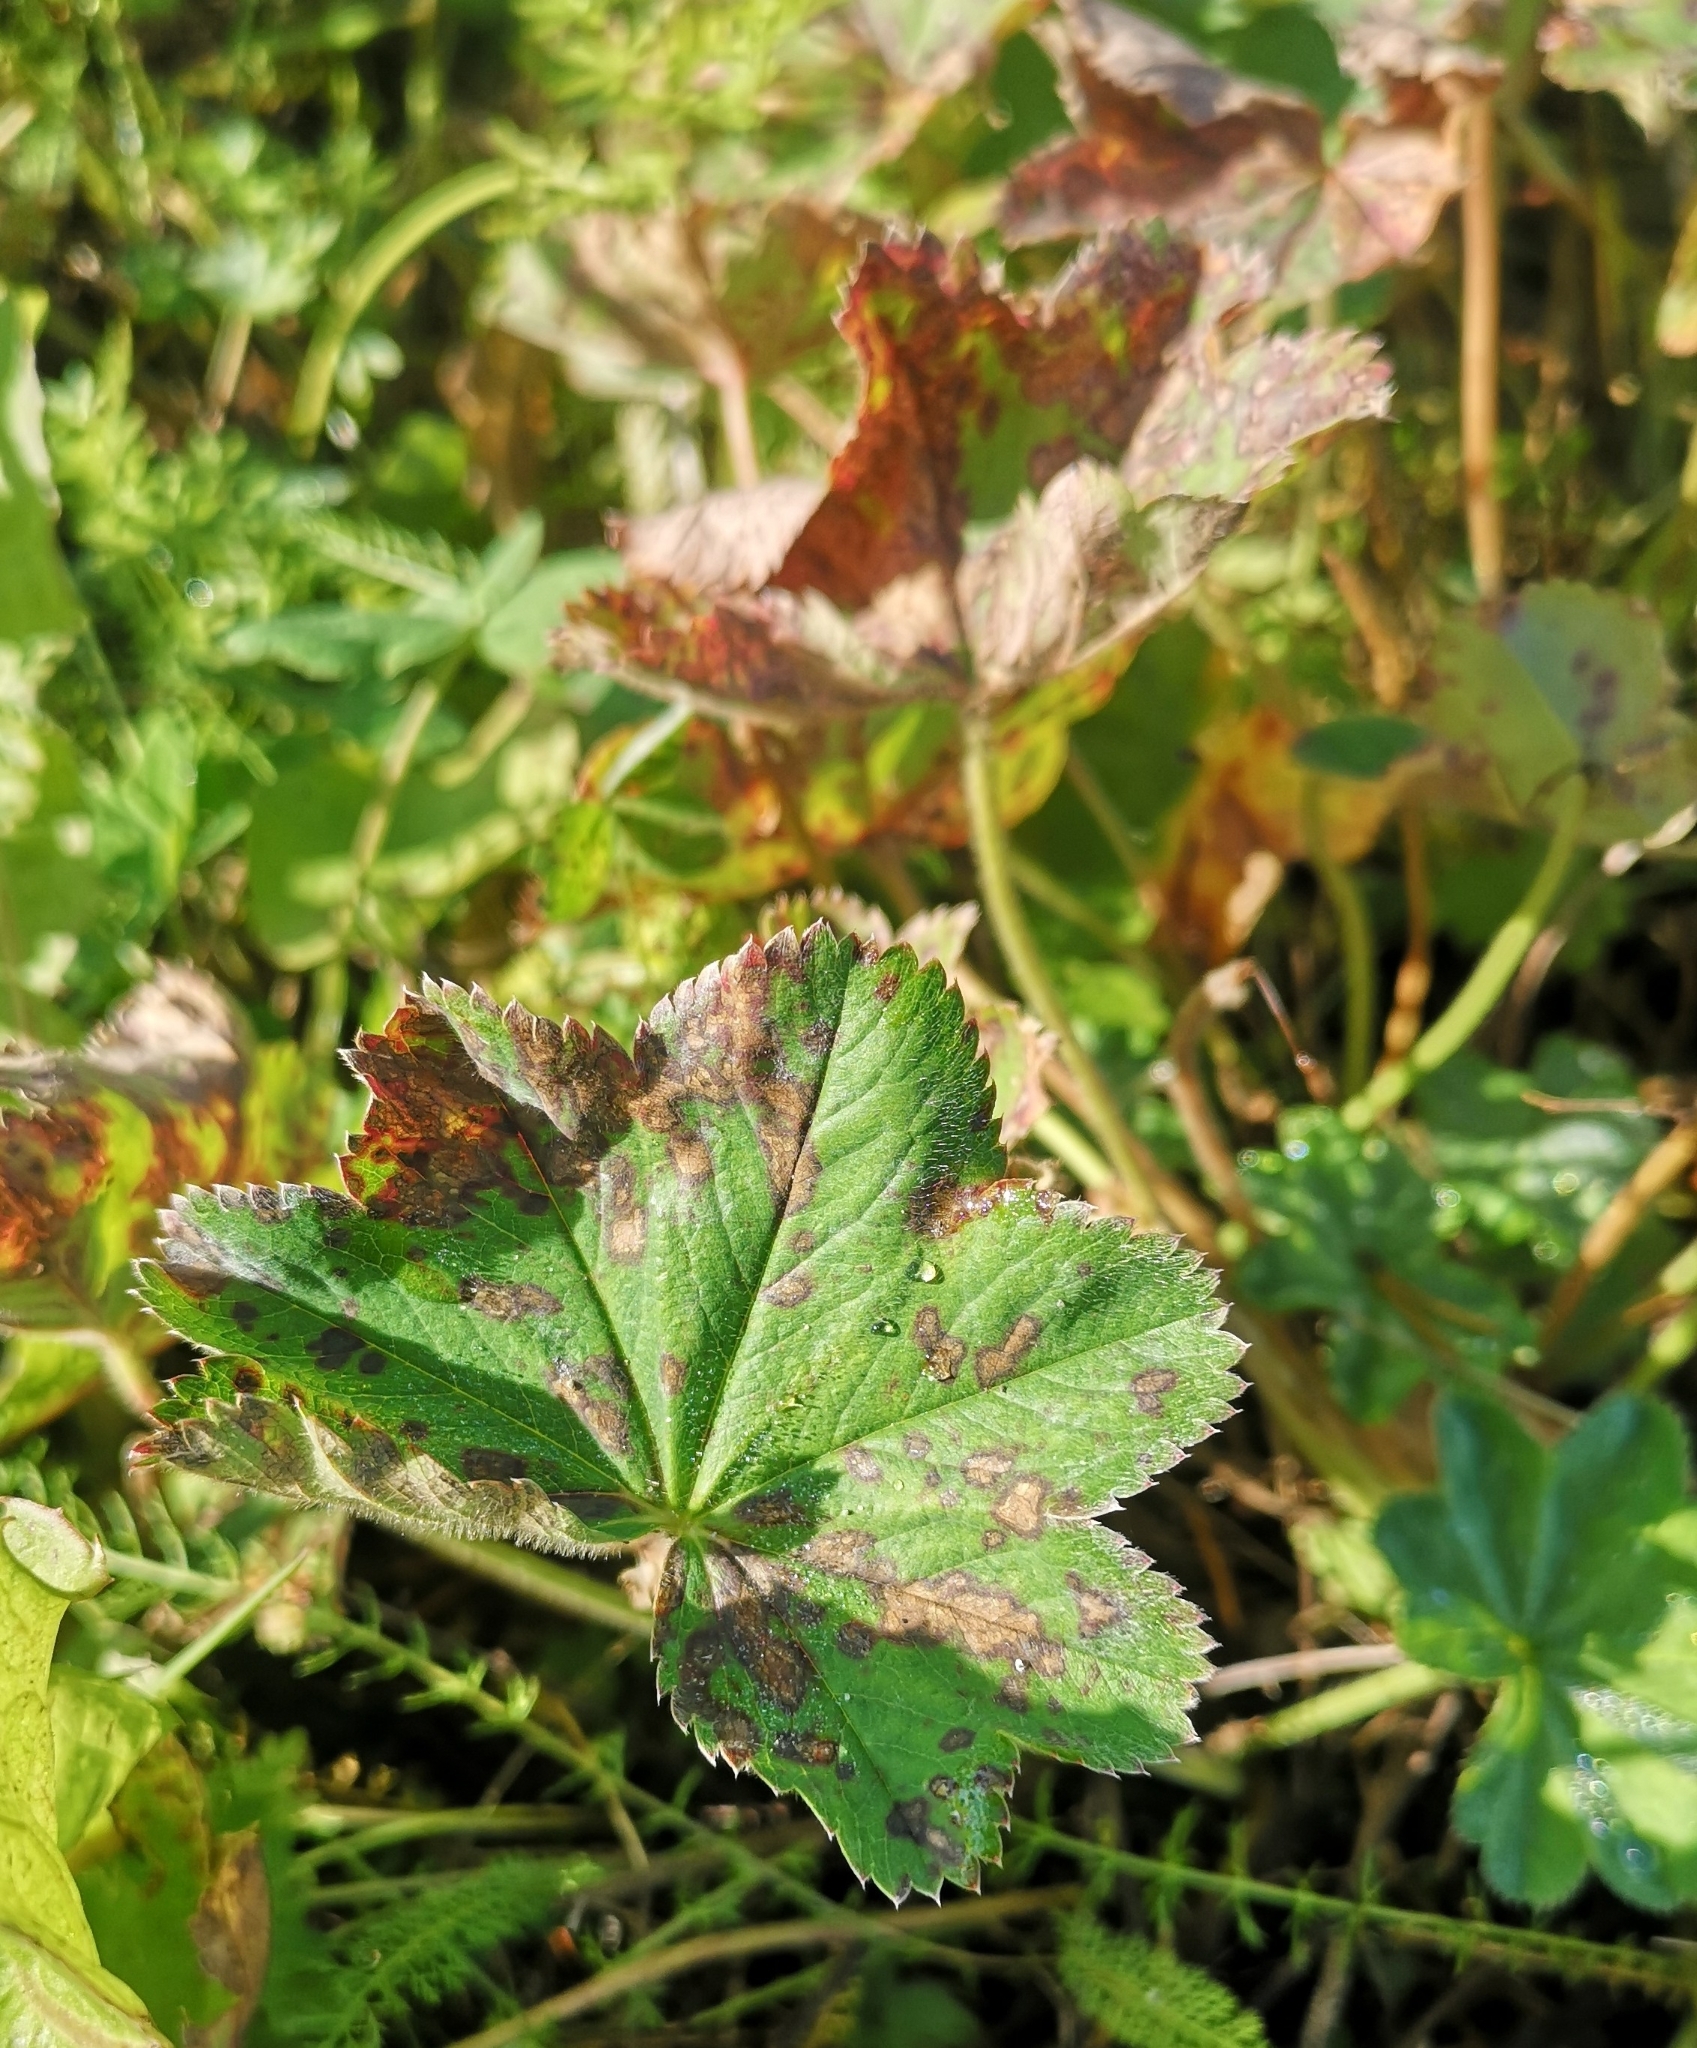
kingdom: Plantae
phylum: Tracheophyta
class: Magnoliopsida
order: Rosales
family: Rosaceae
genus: Alchemilla
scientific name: Alchemilla
